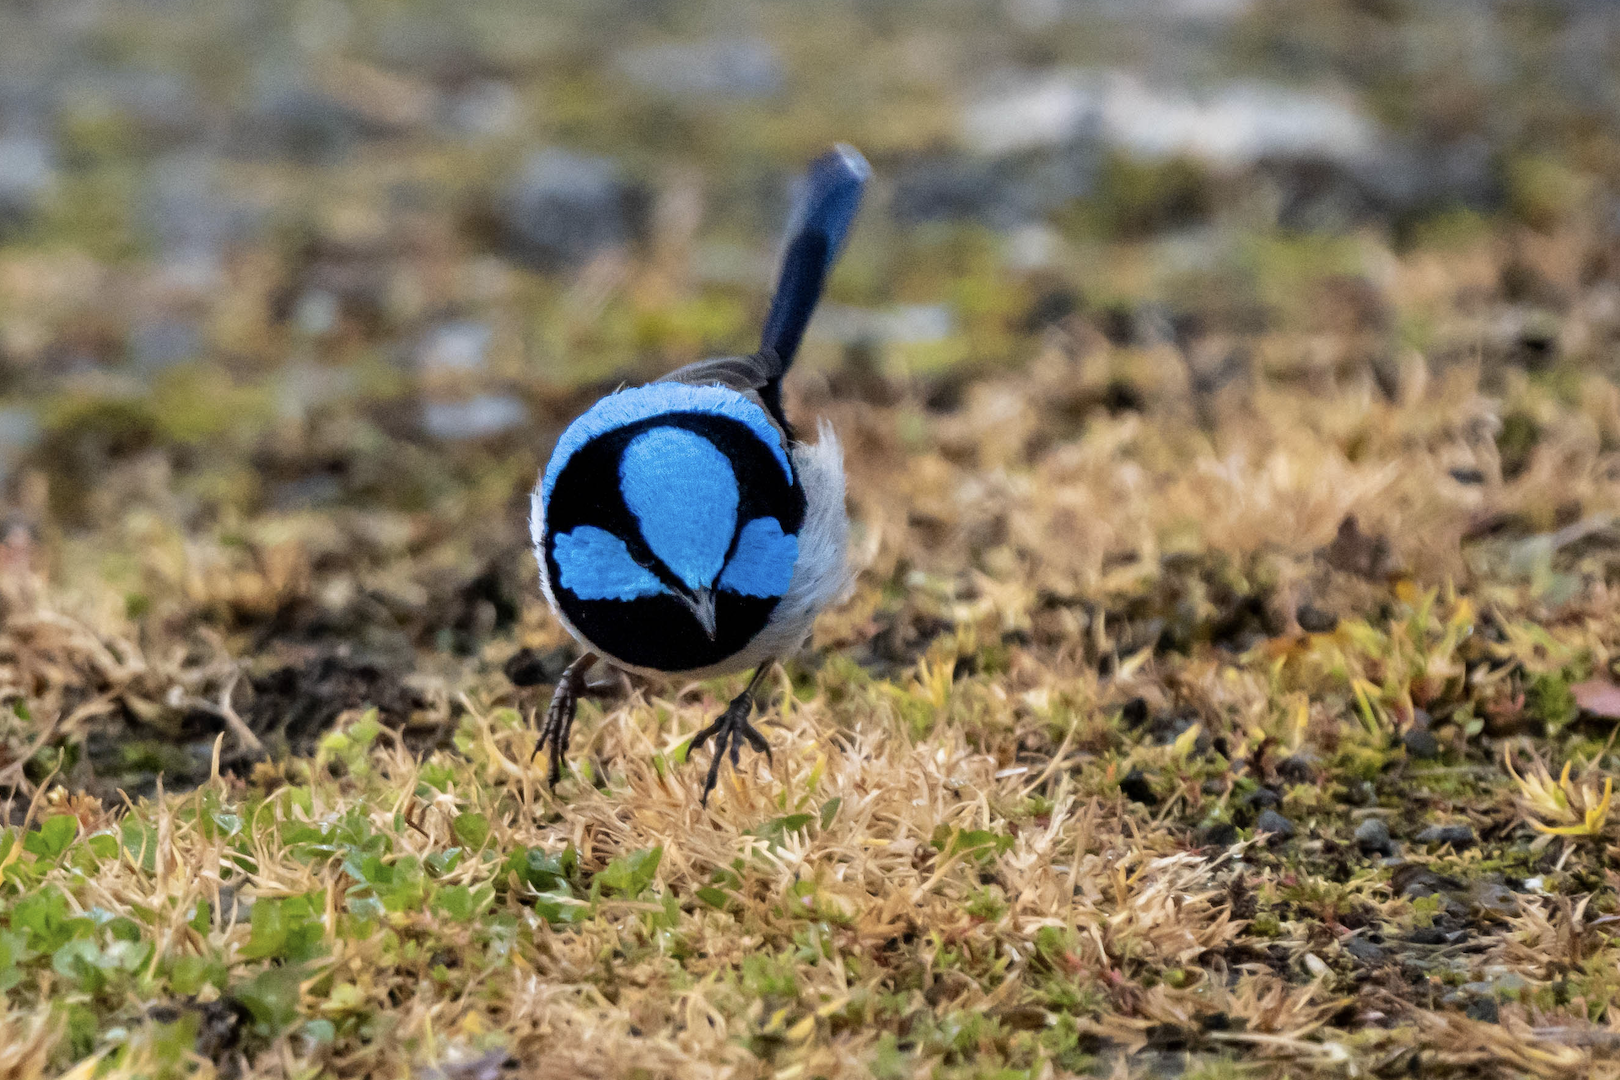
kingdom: Animalia
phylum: Chordata
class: Aves
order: Passeriformes
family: Maluridae
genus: Malurus
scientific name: Malurus cyaneus
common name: Superb fairywren
